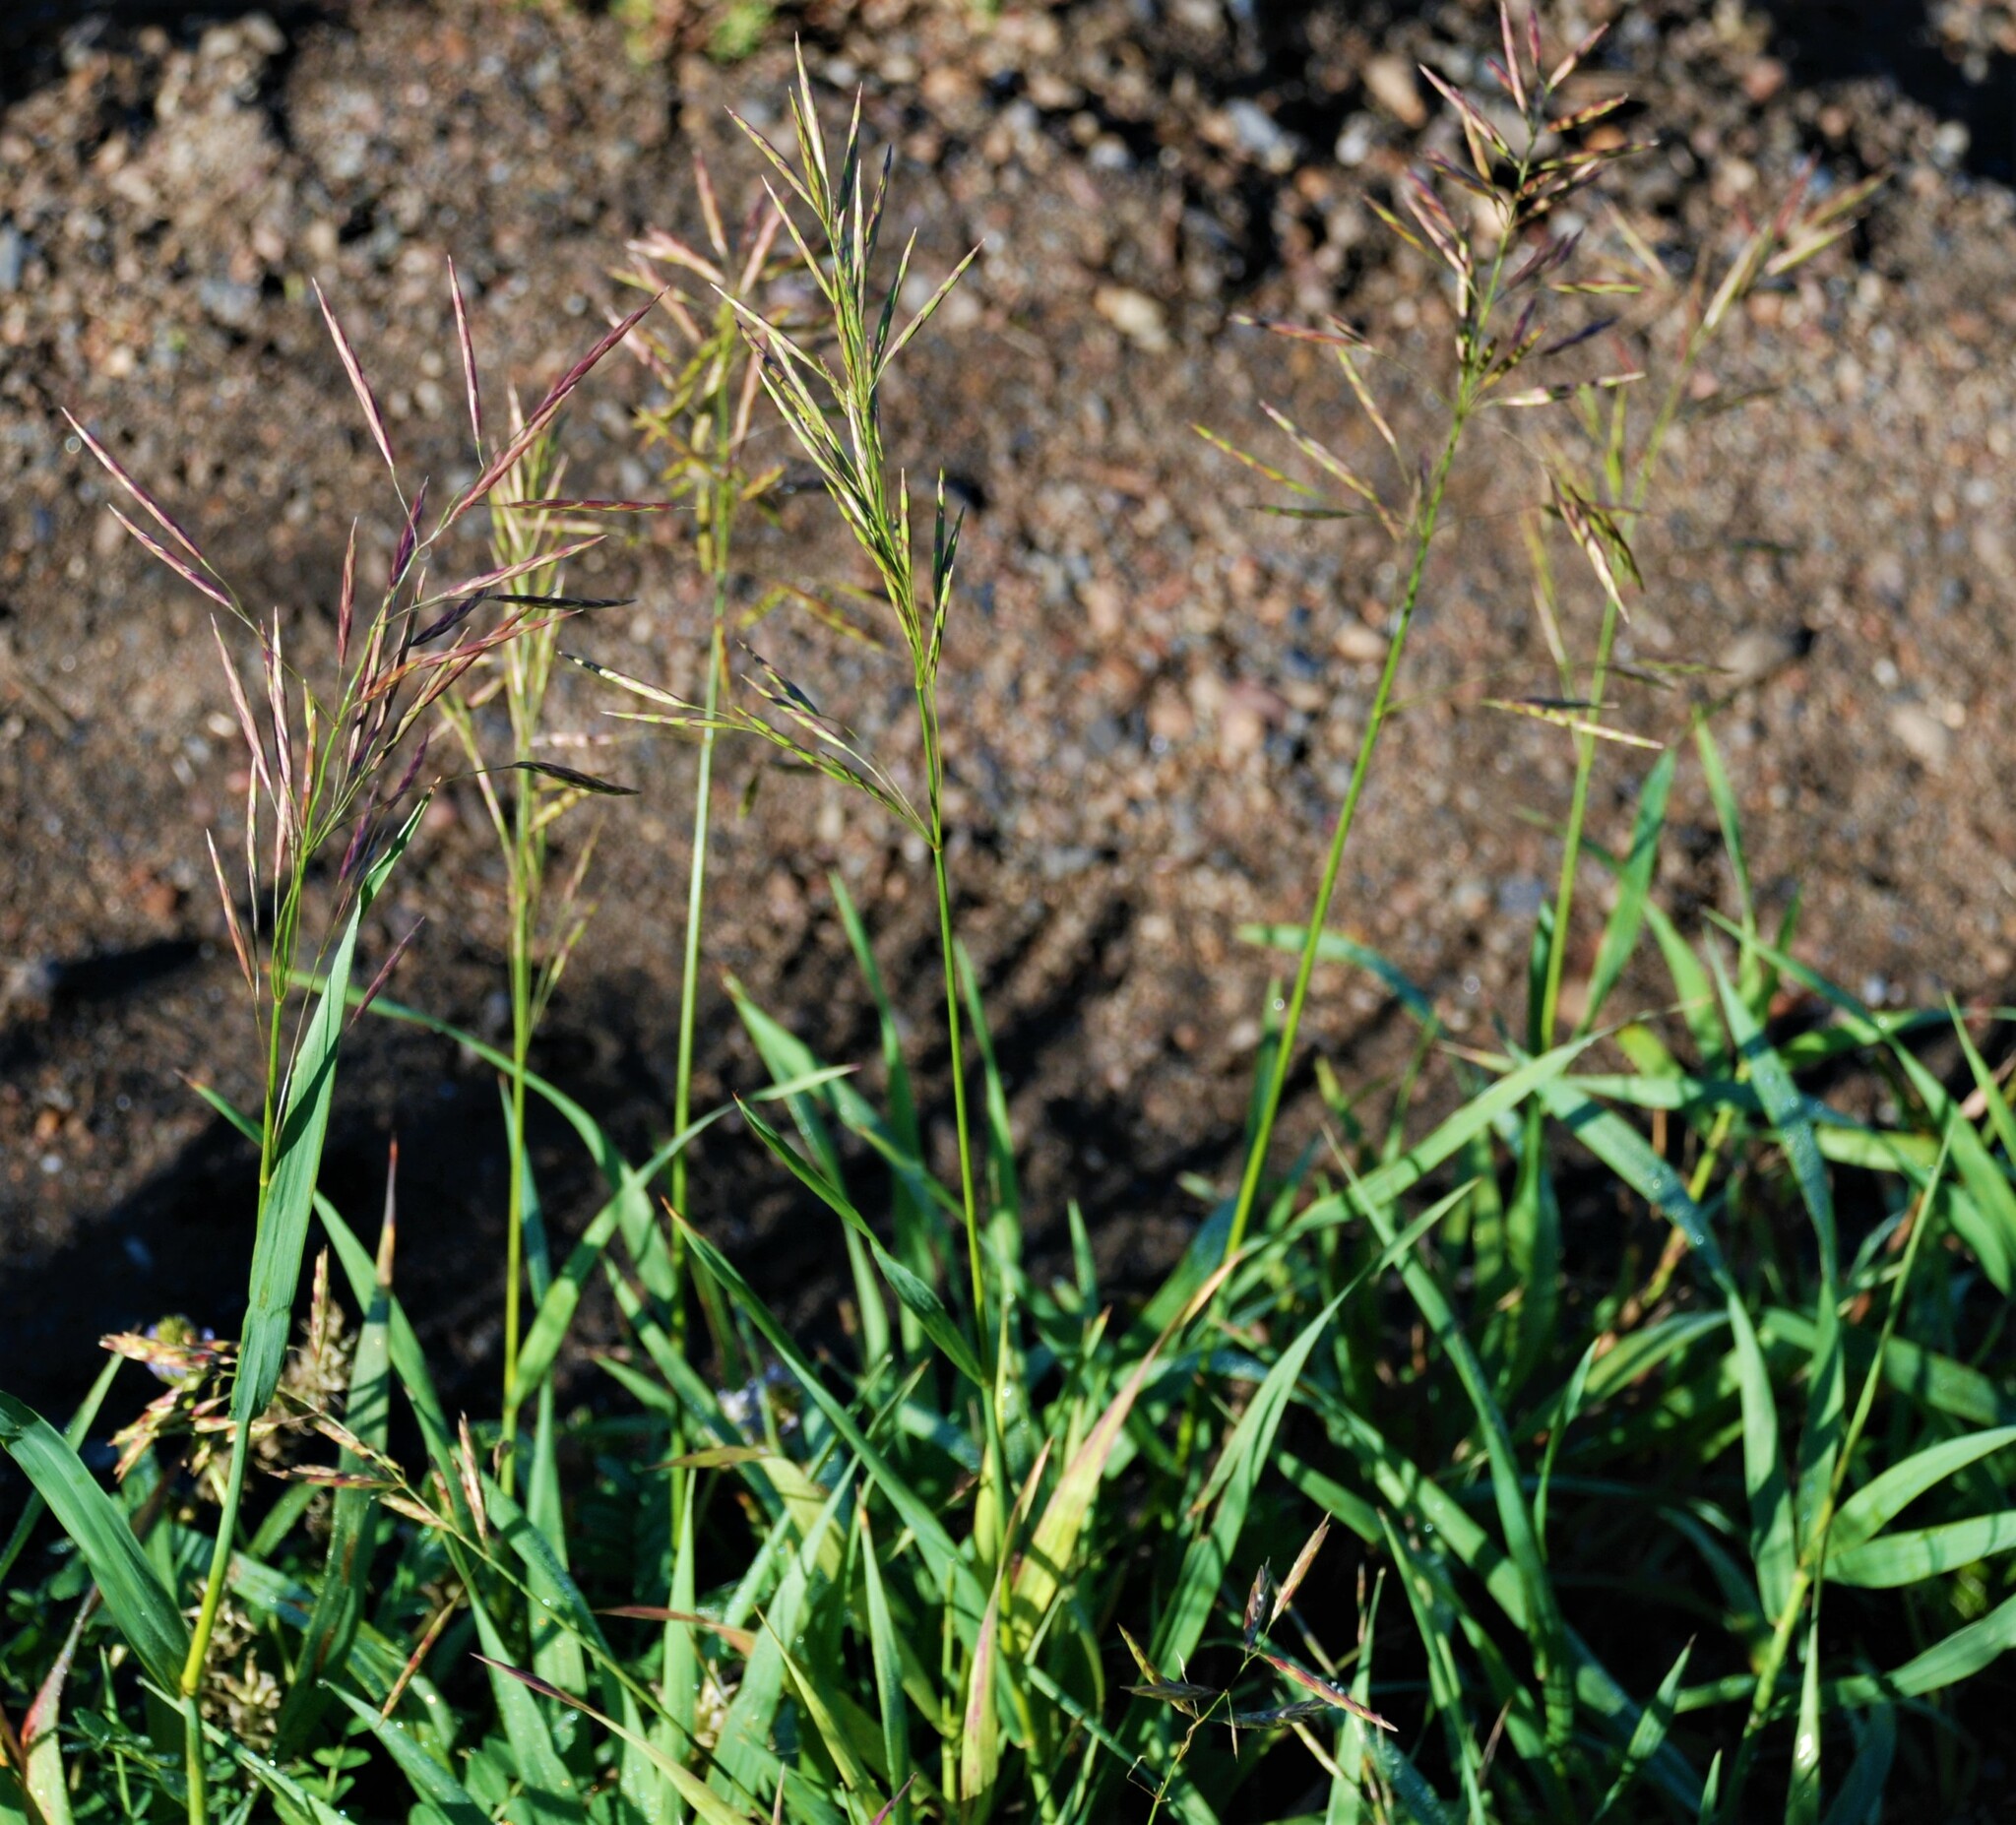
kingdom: Plantae
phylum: Tracheophyta
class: Liliopsida
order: Poales
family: Poaceae
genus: Bromus
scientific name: Bromus inermis
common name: Smooth brome
